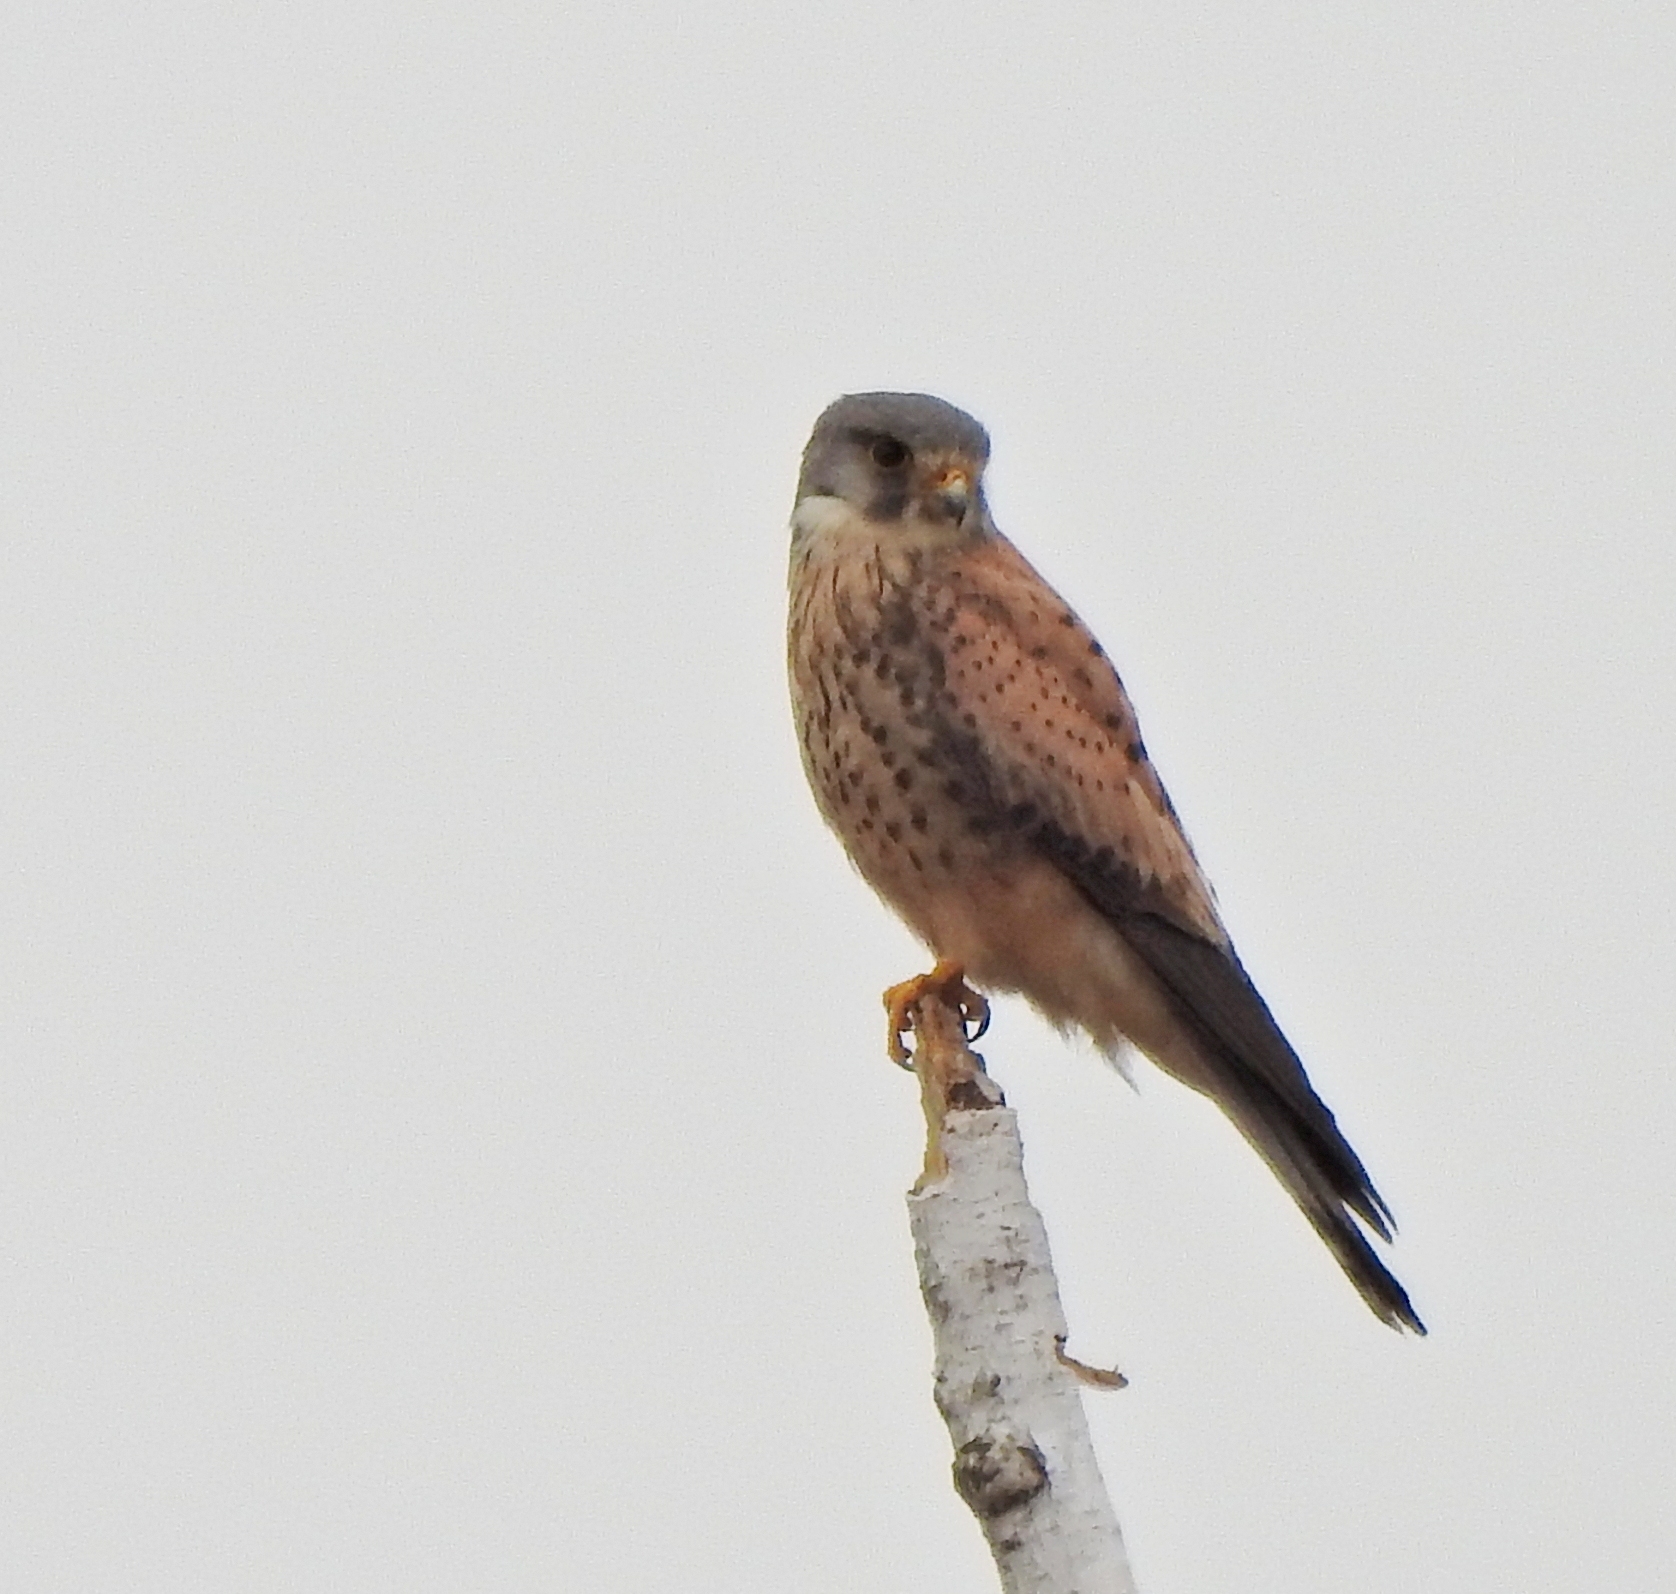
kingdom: Animalia
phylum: Chordata
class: Aves
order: Falconiformes
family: Falconidae
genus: Falco
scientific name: Falco tinnunculus
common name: Common kestrel
